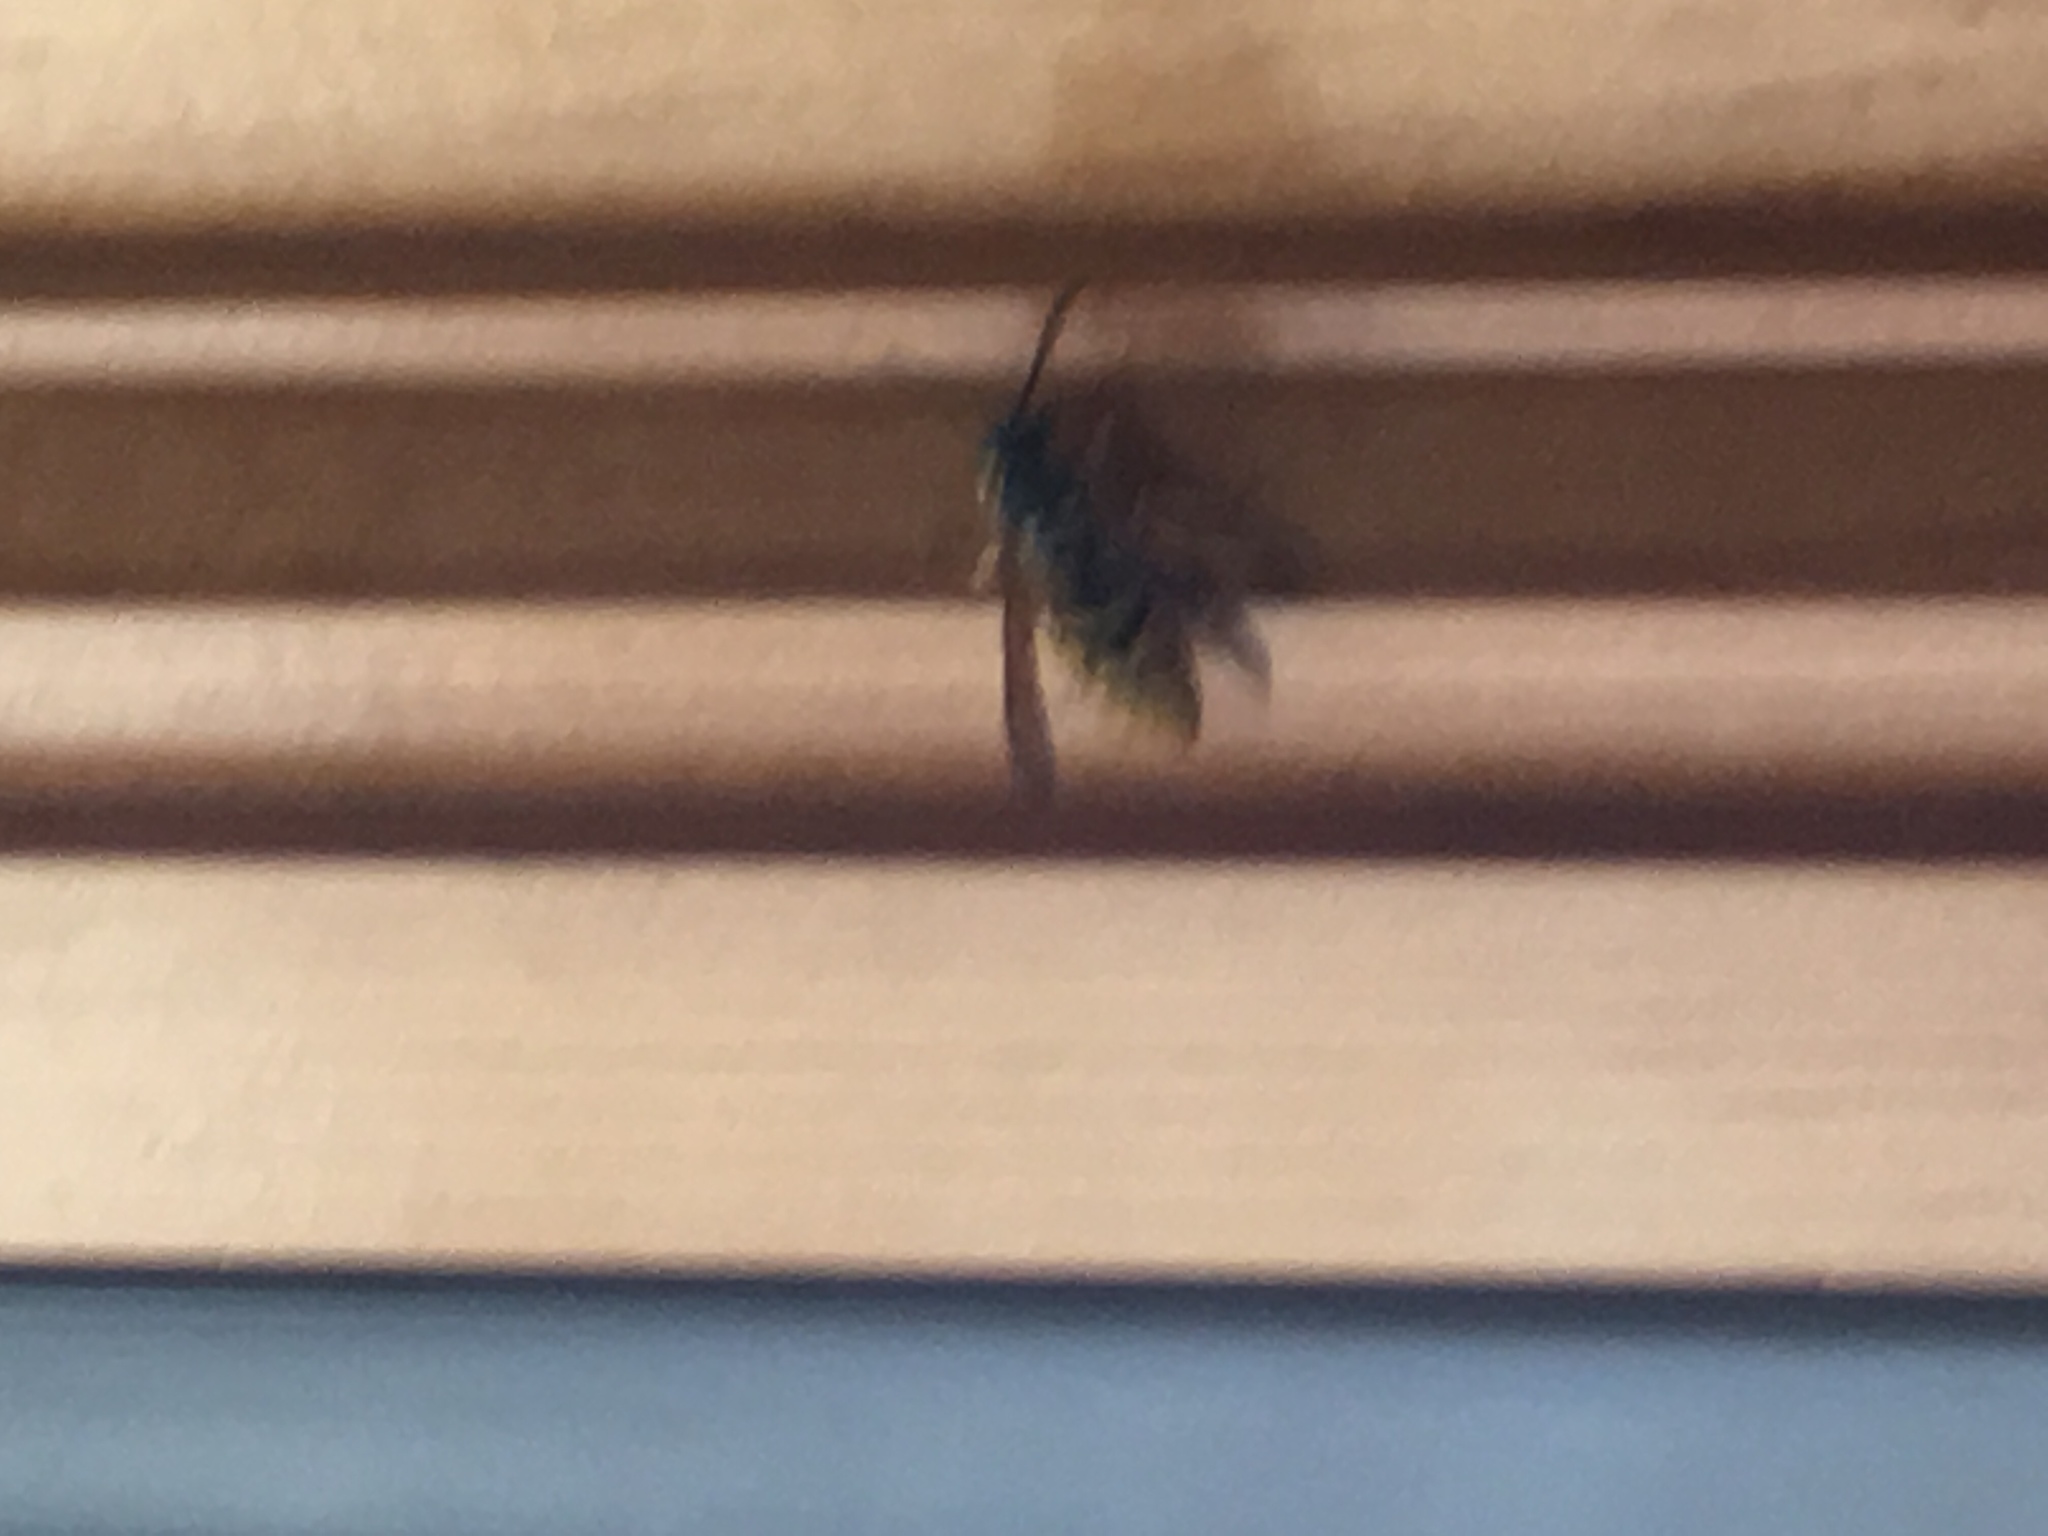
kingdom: Animalia
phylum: Arthropoda
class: Insecta
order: Hymenoptera
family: Vespidae
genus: Vespula
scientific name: Vespula maculifrons
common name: Eastern yellowjacket
